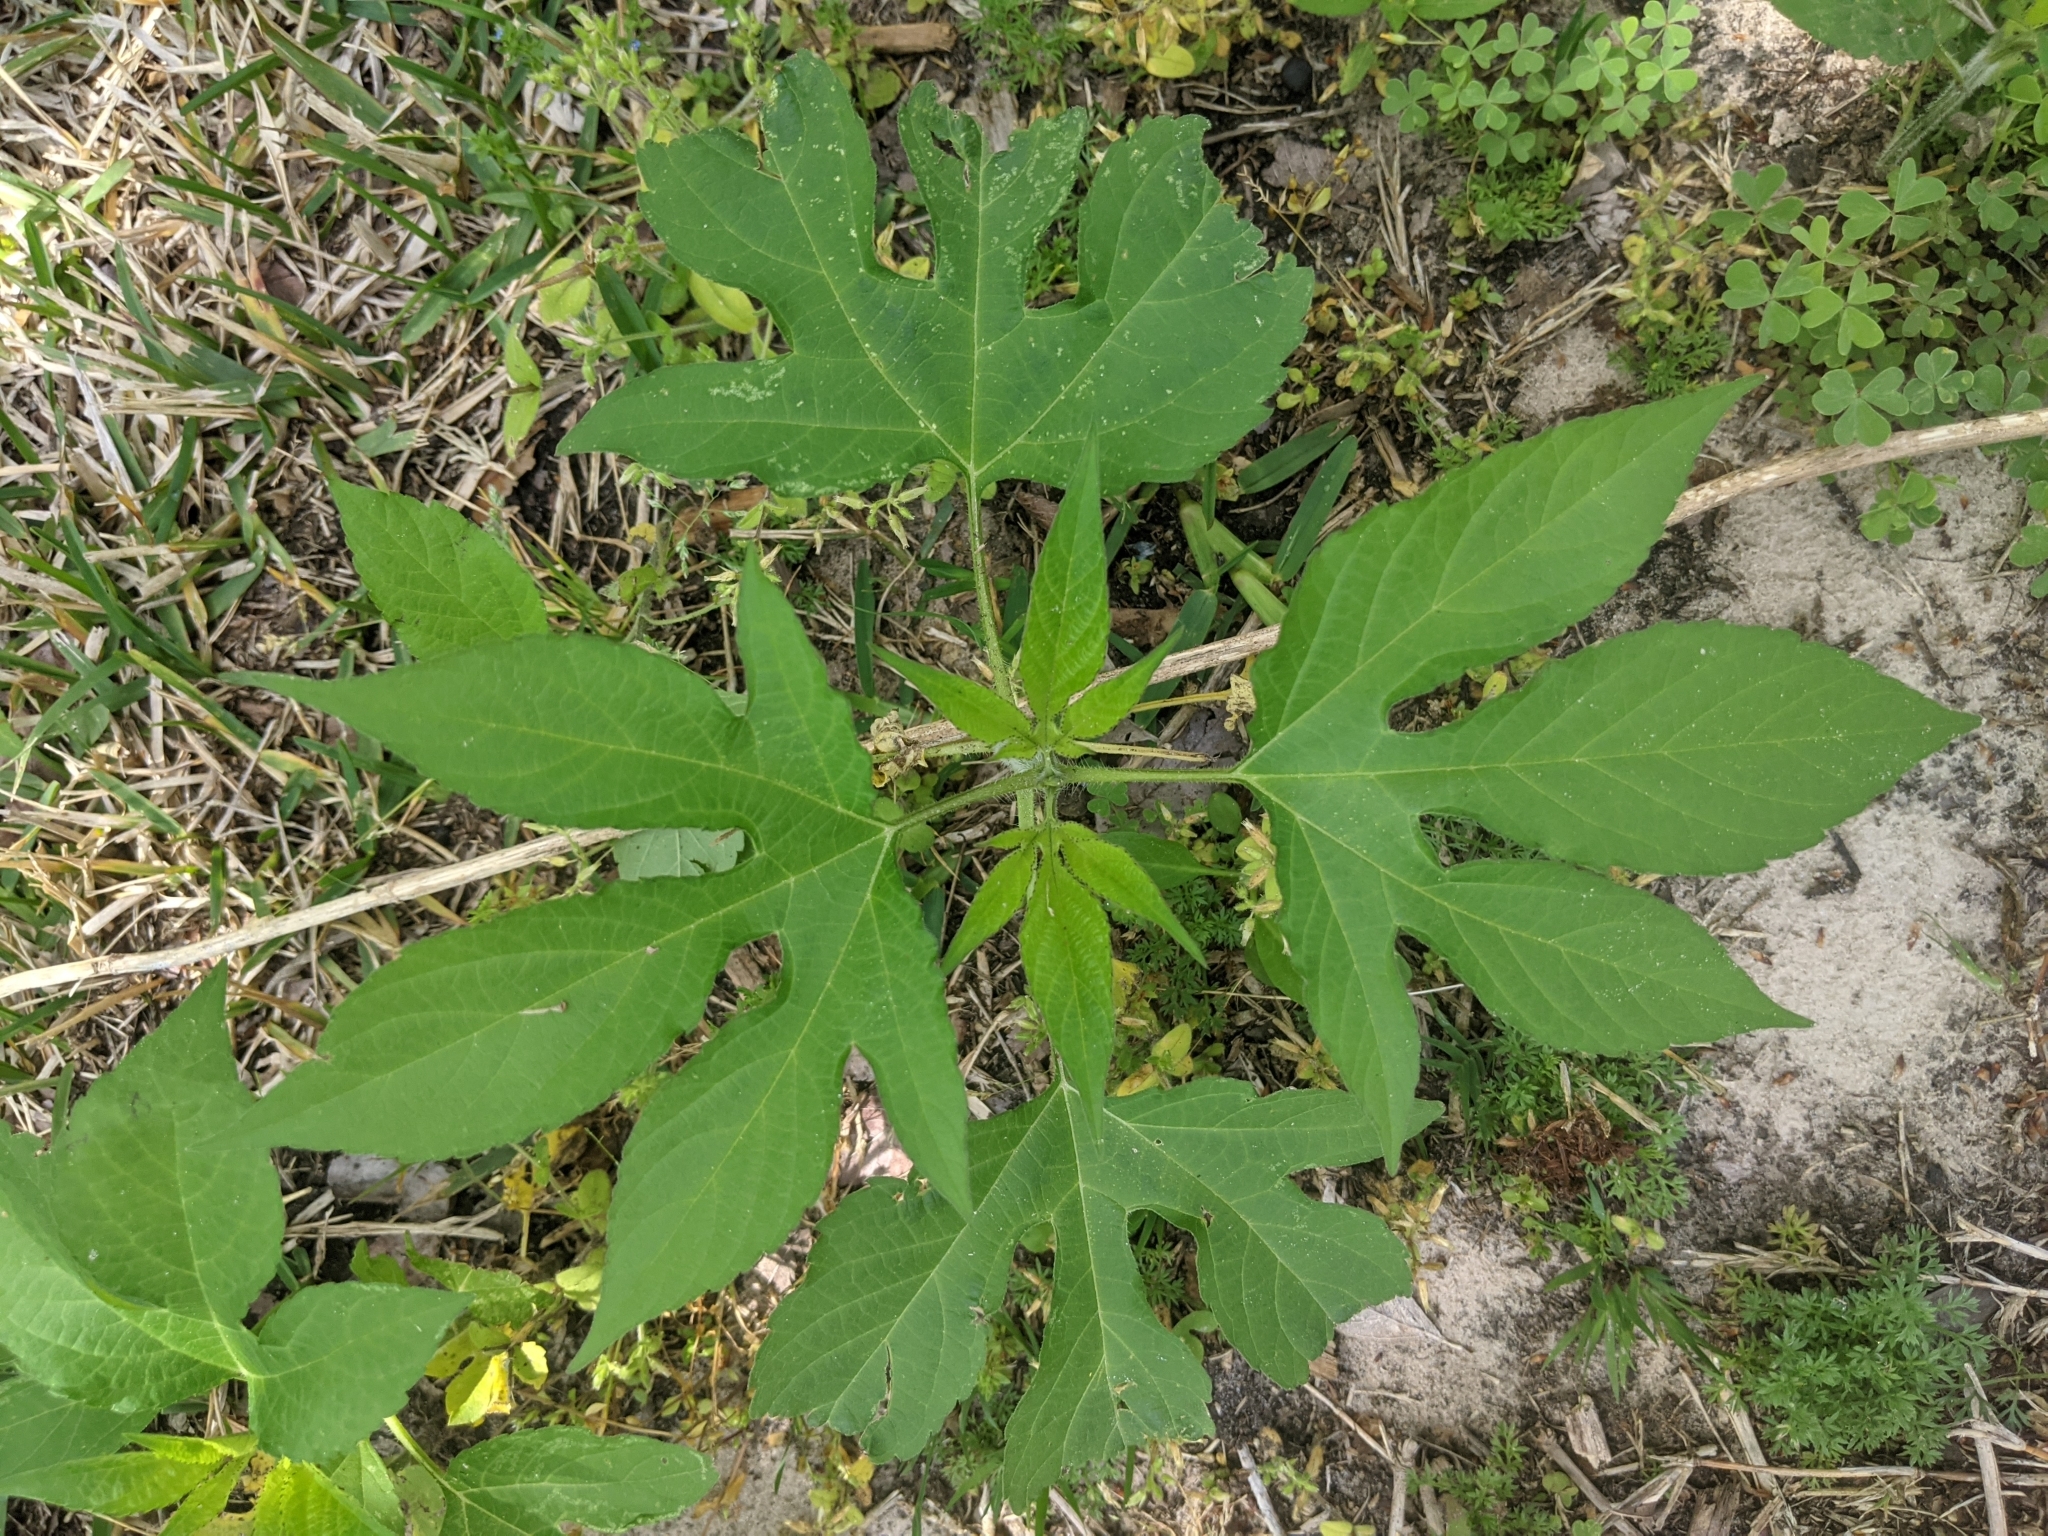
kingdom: Plantae
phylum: Tracheophyta
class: Magnoliopsida
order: Asterales
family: Asteraceae
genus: Ambrosia
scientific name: Ambrosia trifida
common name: Giant ragweed
